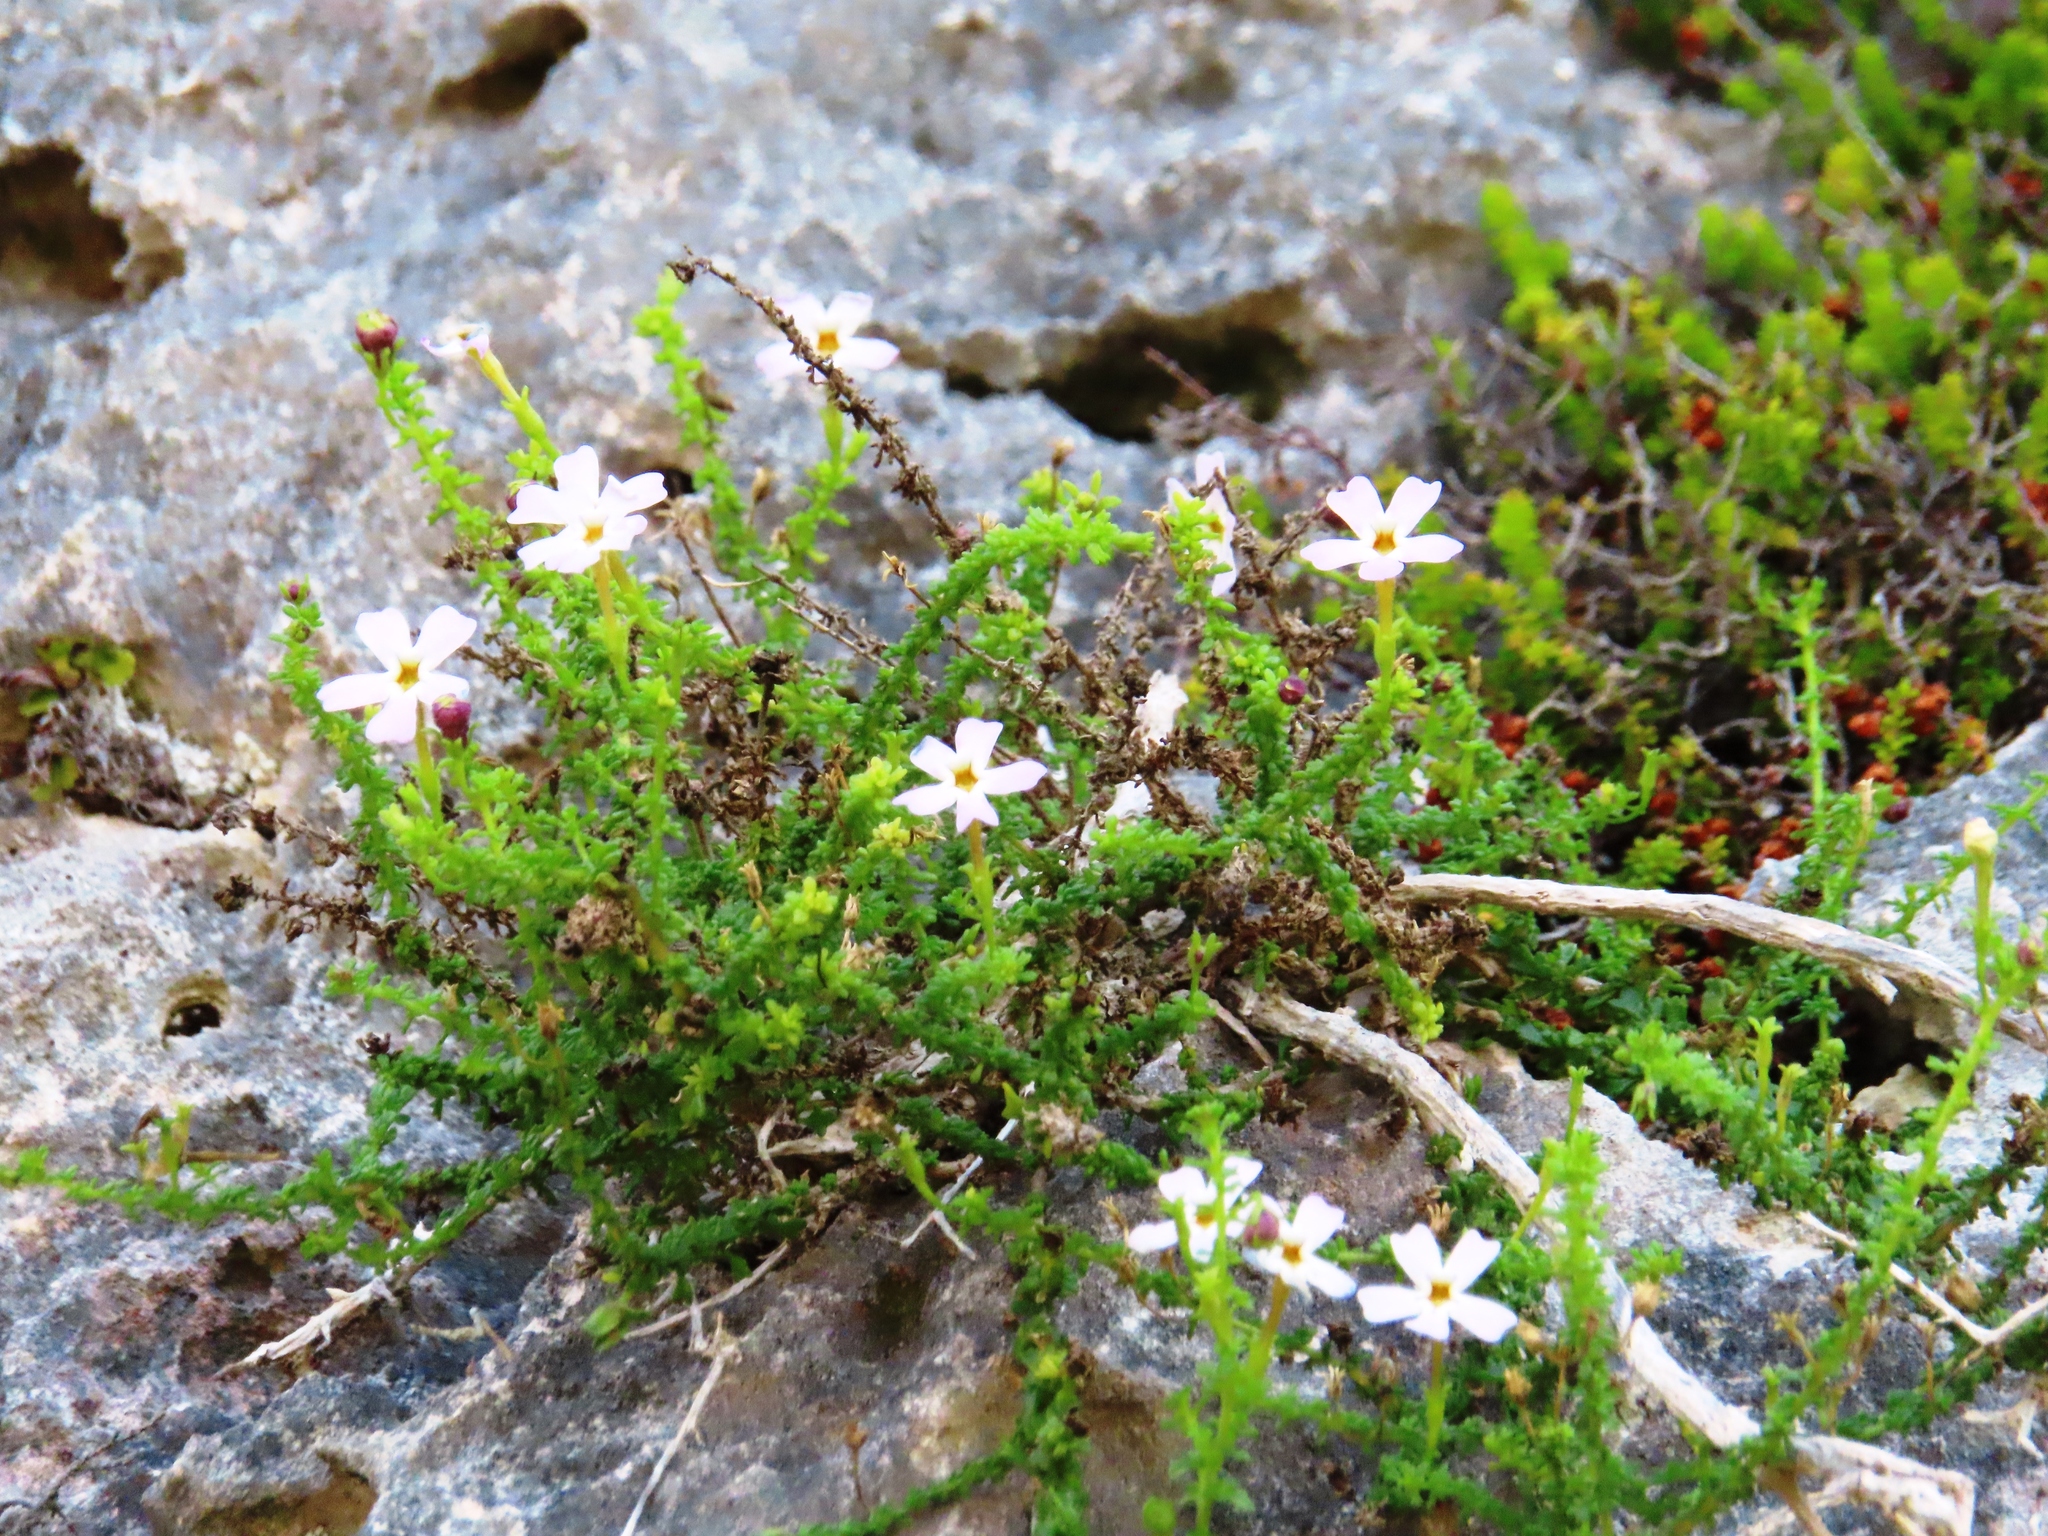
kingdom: Plantae
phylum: Tracheophyta
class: Magnoliopsida
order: Lamiales
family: Scrophulariaceae
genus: Jamesbrittenia
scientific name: Jamesbrittenia calciphila
